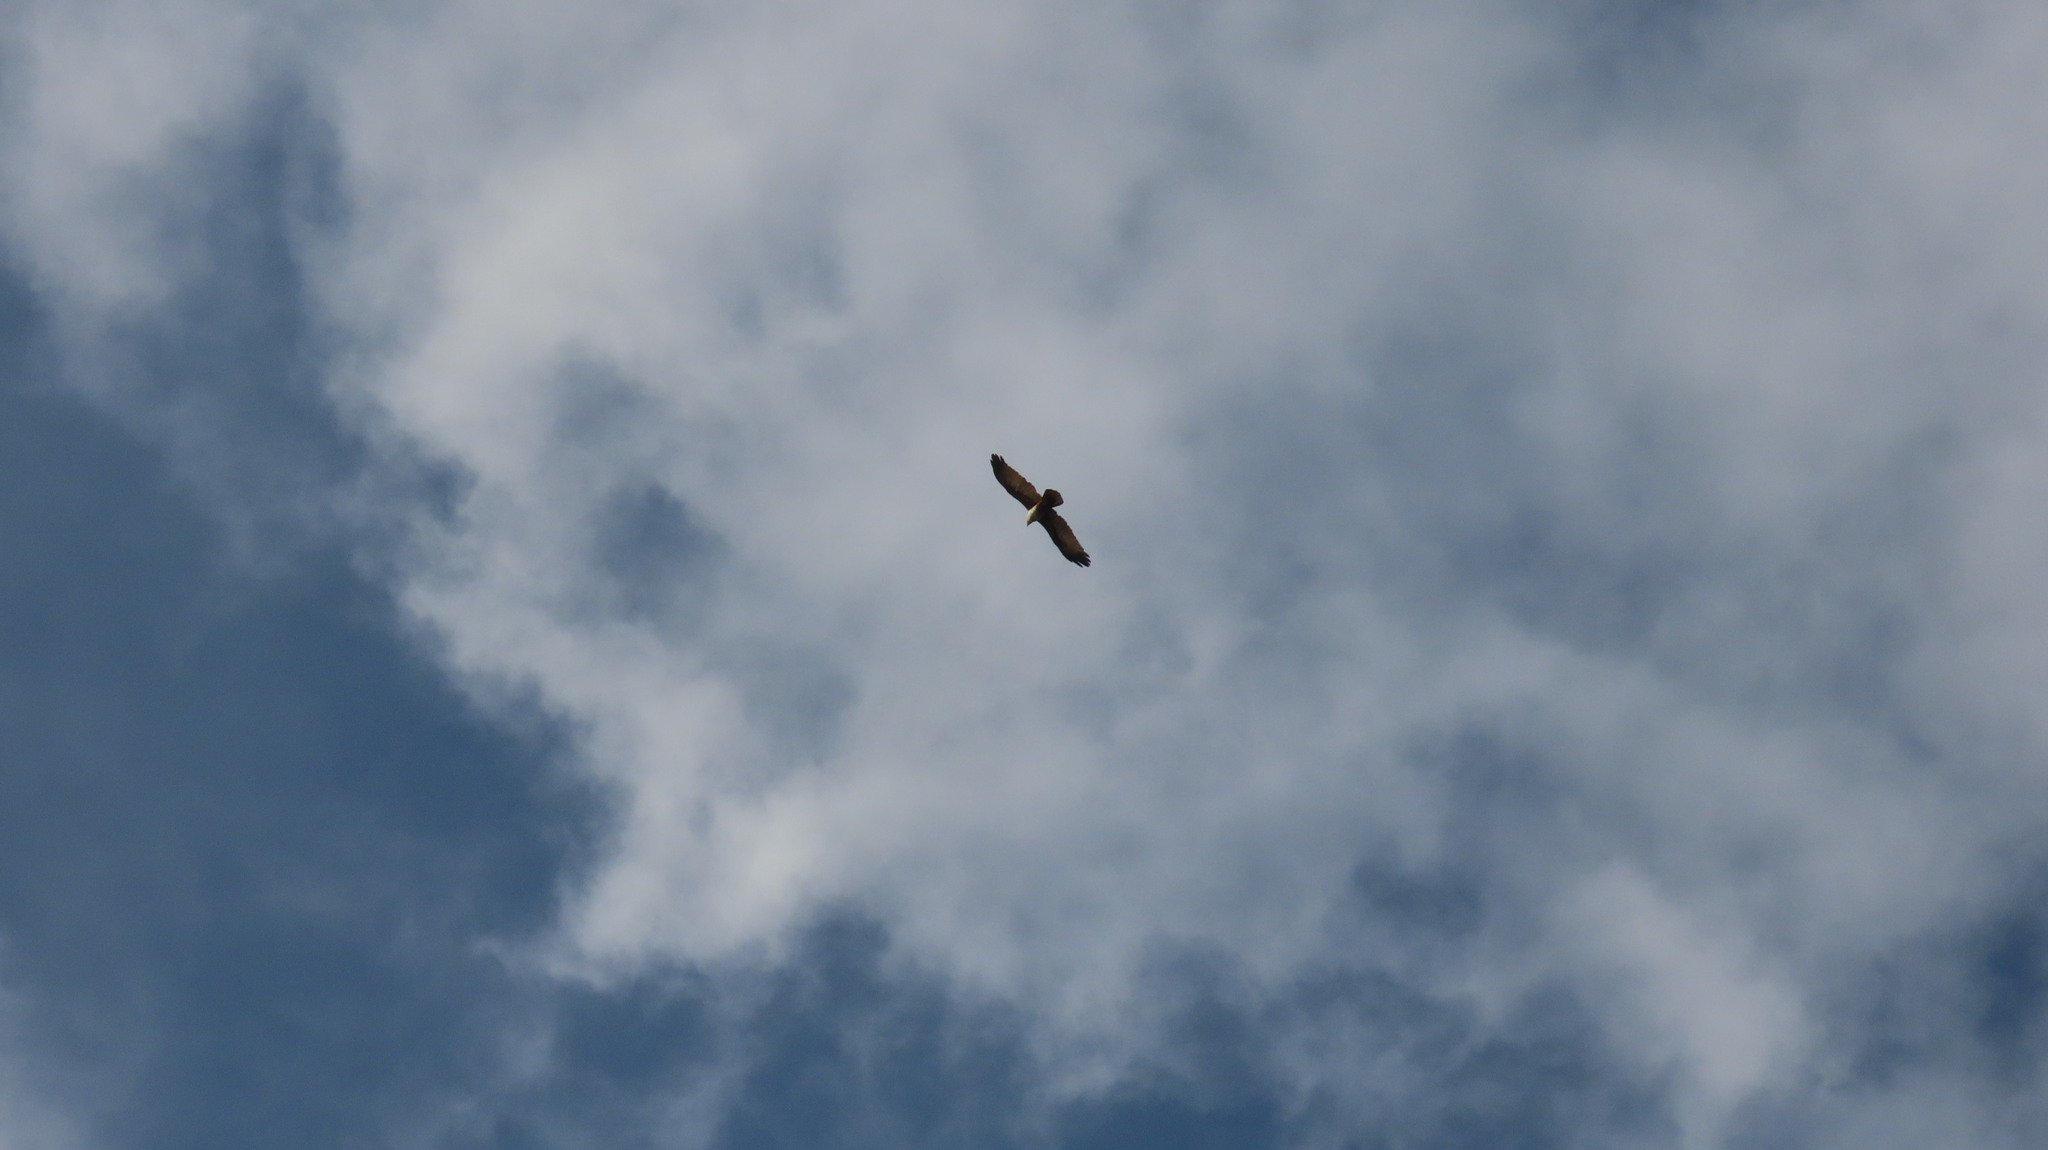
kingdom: Animalia
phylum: Chordata
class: Aves
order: Accipitriformes
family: Accipitridae
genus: Haliastur
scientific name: Haliastur indus
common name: Brahminy kite
